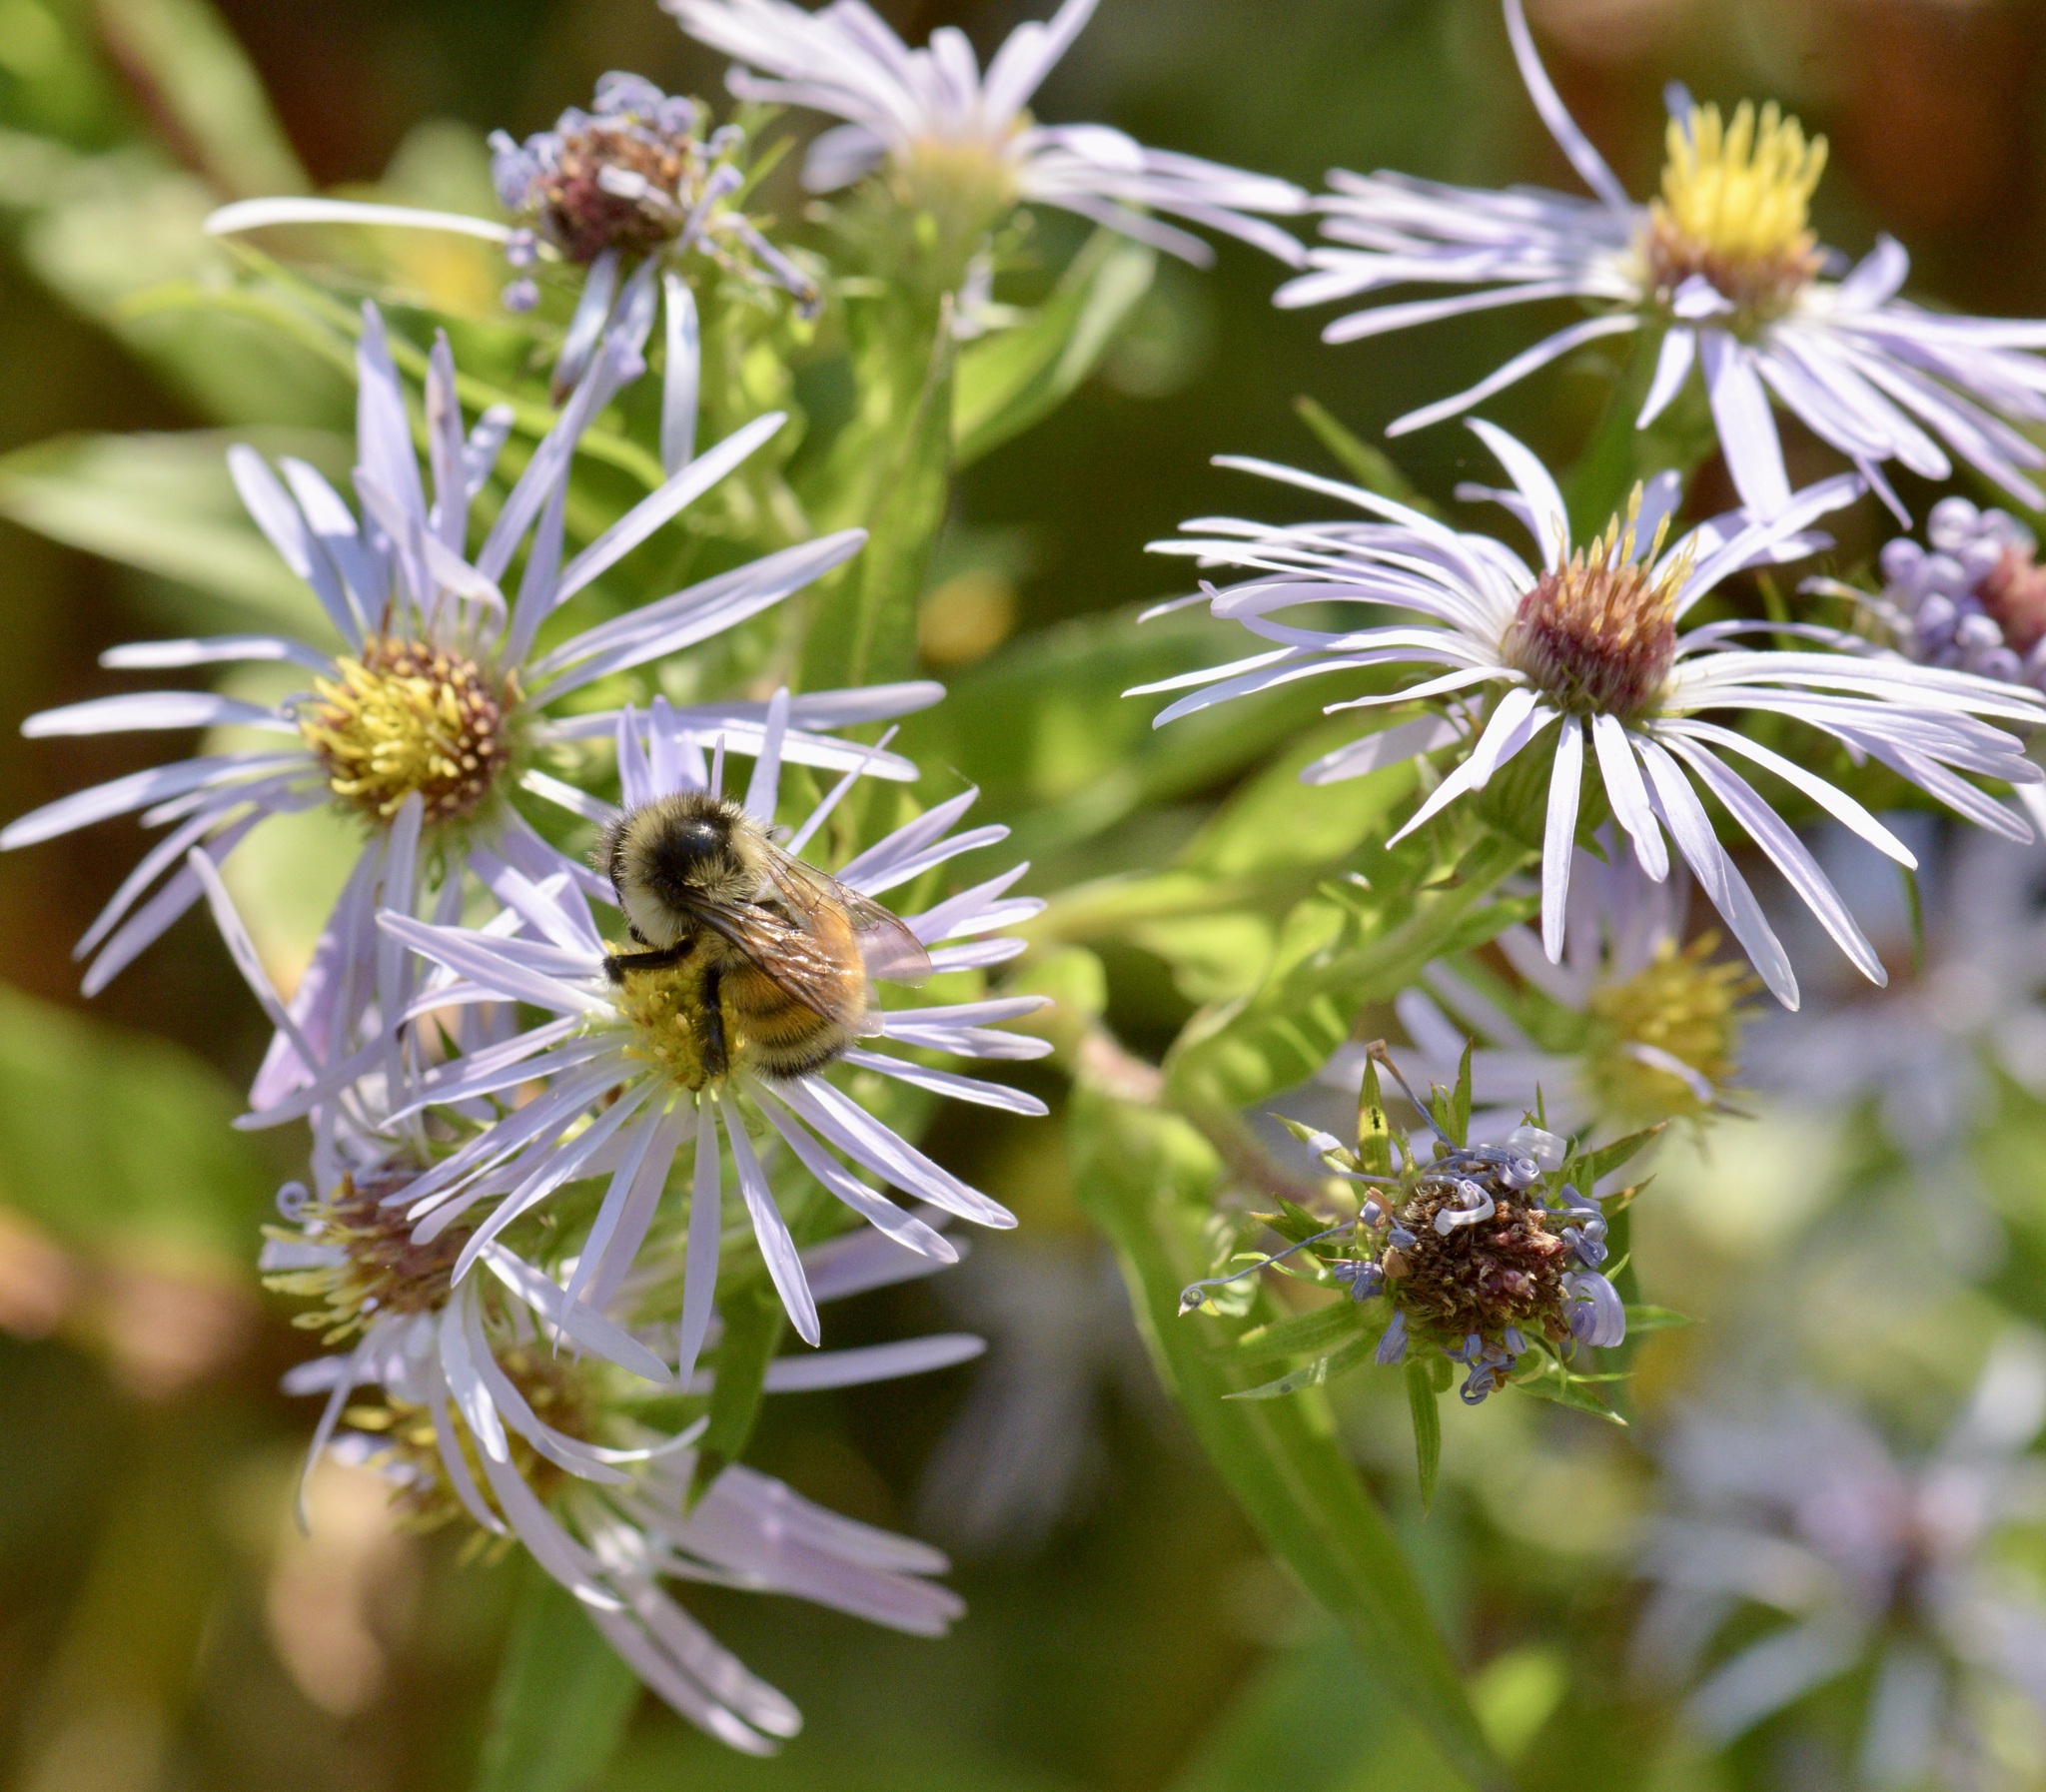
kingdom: Animalia
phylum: Arthropoda
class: Insecta
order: Hymenoptera
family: Apidae
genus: Bombus
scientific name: Bombus ternarius
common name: Tri-colored bumble bee
